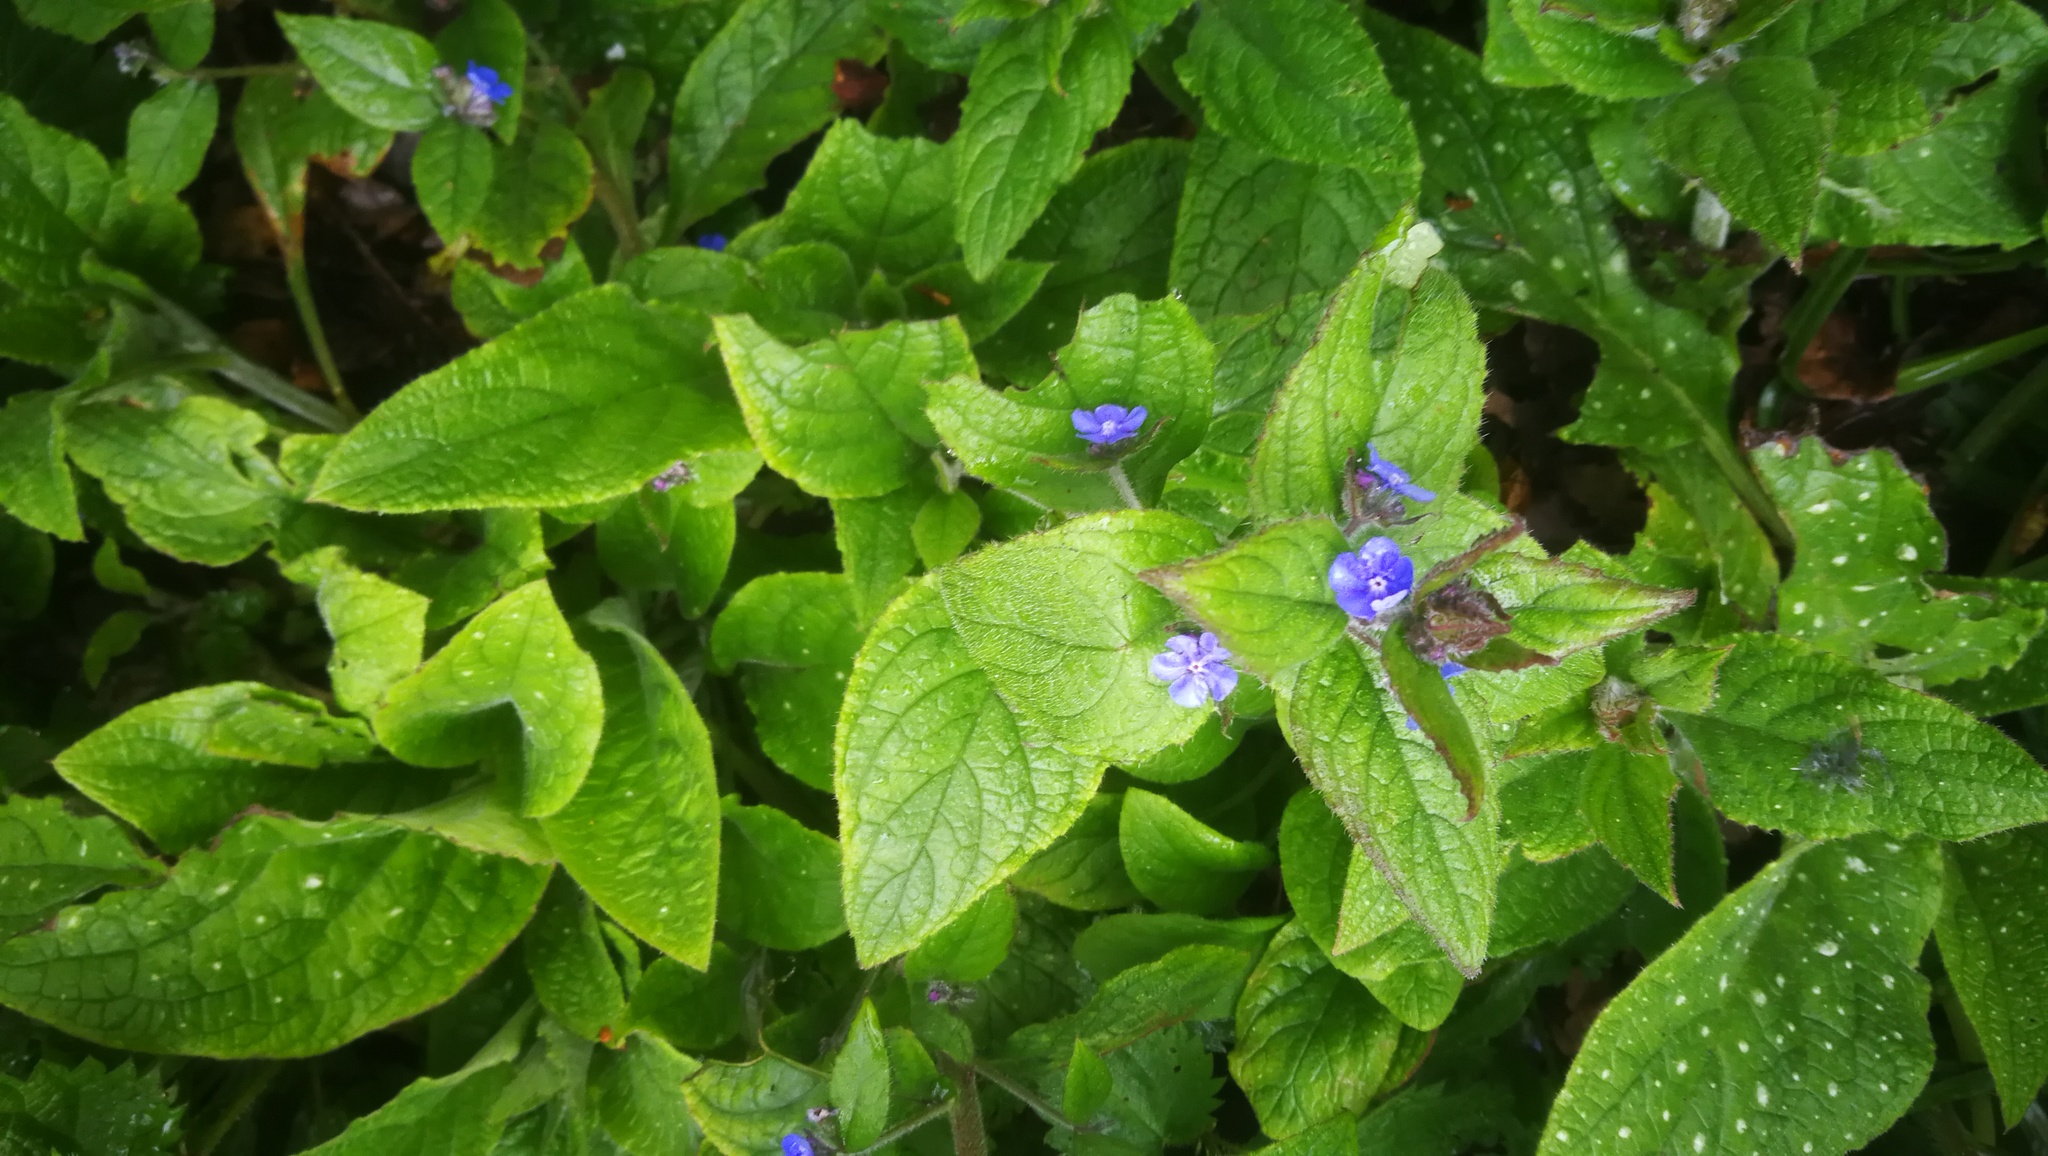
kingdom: Plantae
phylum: Tracheophyta
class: Magnoliopsida
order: Boraginales
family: Boraginaceae
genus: Pentaglottis
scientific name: Pentaglottis sempervirens
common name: Green alkanet
